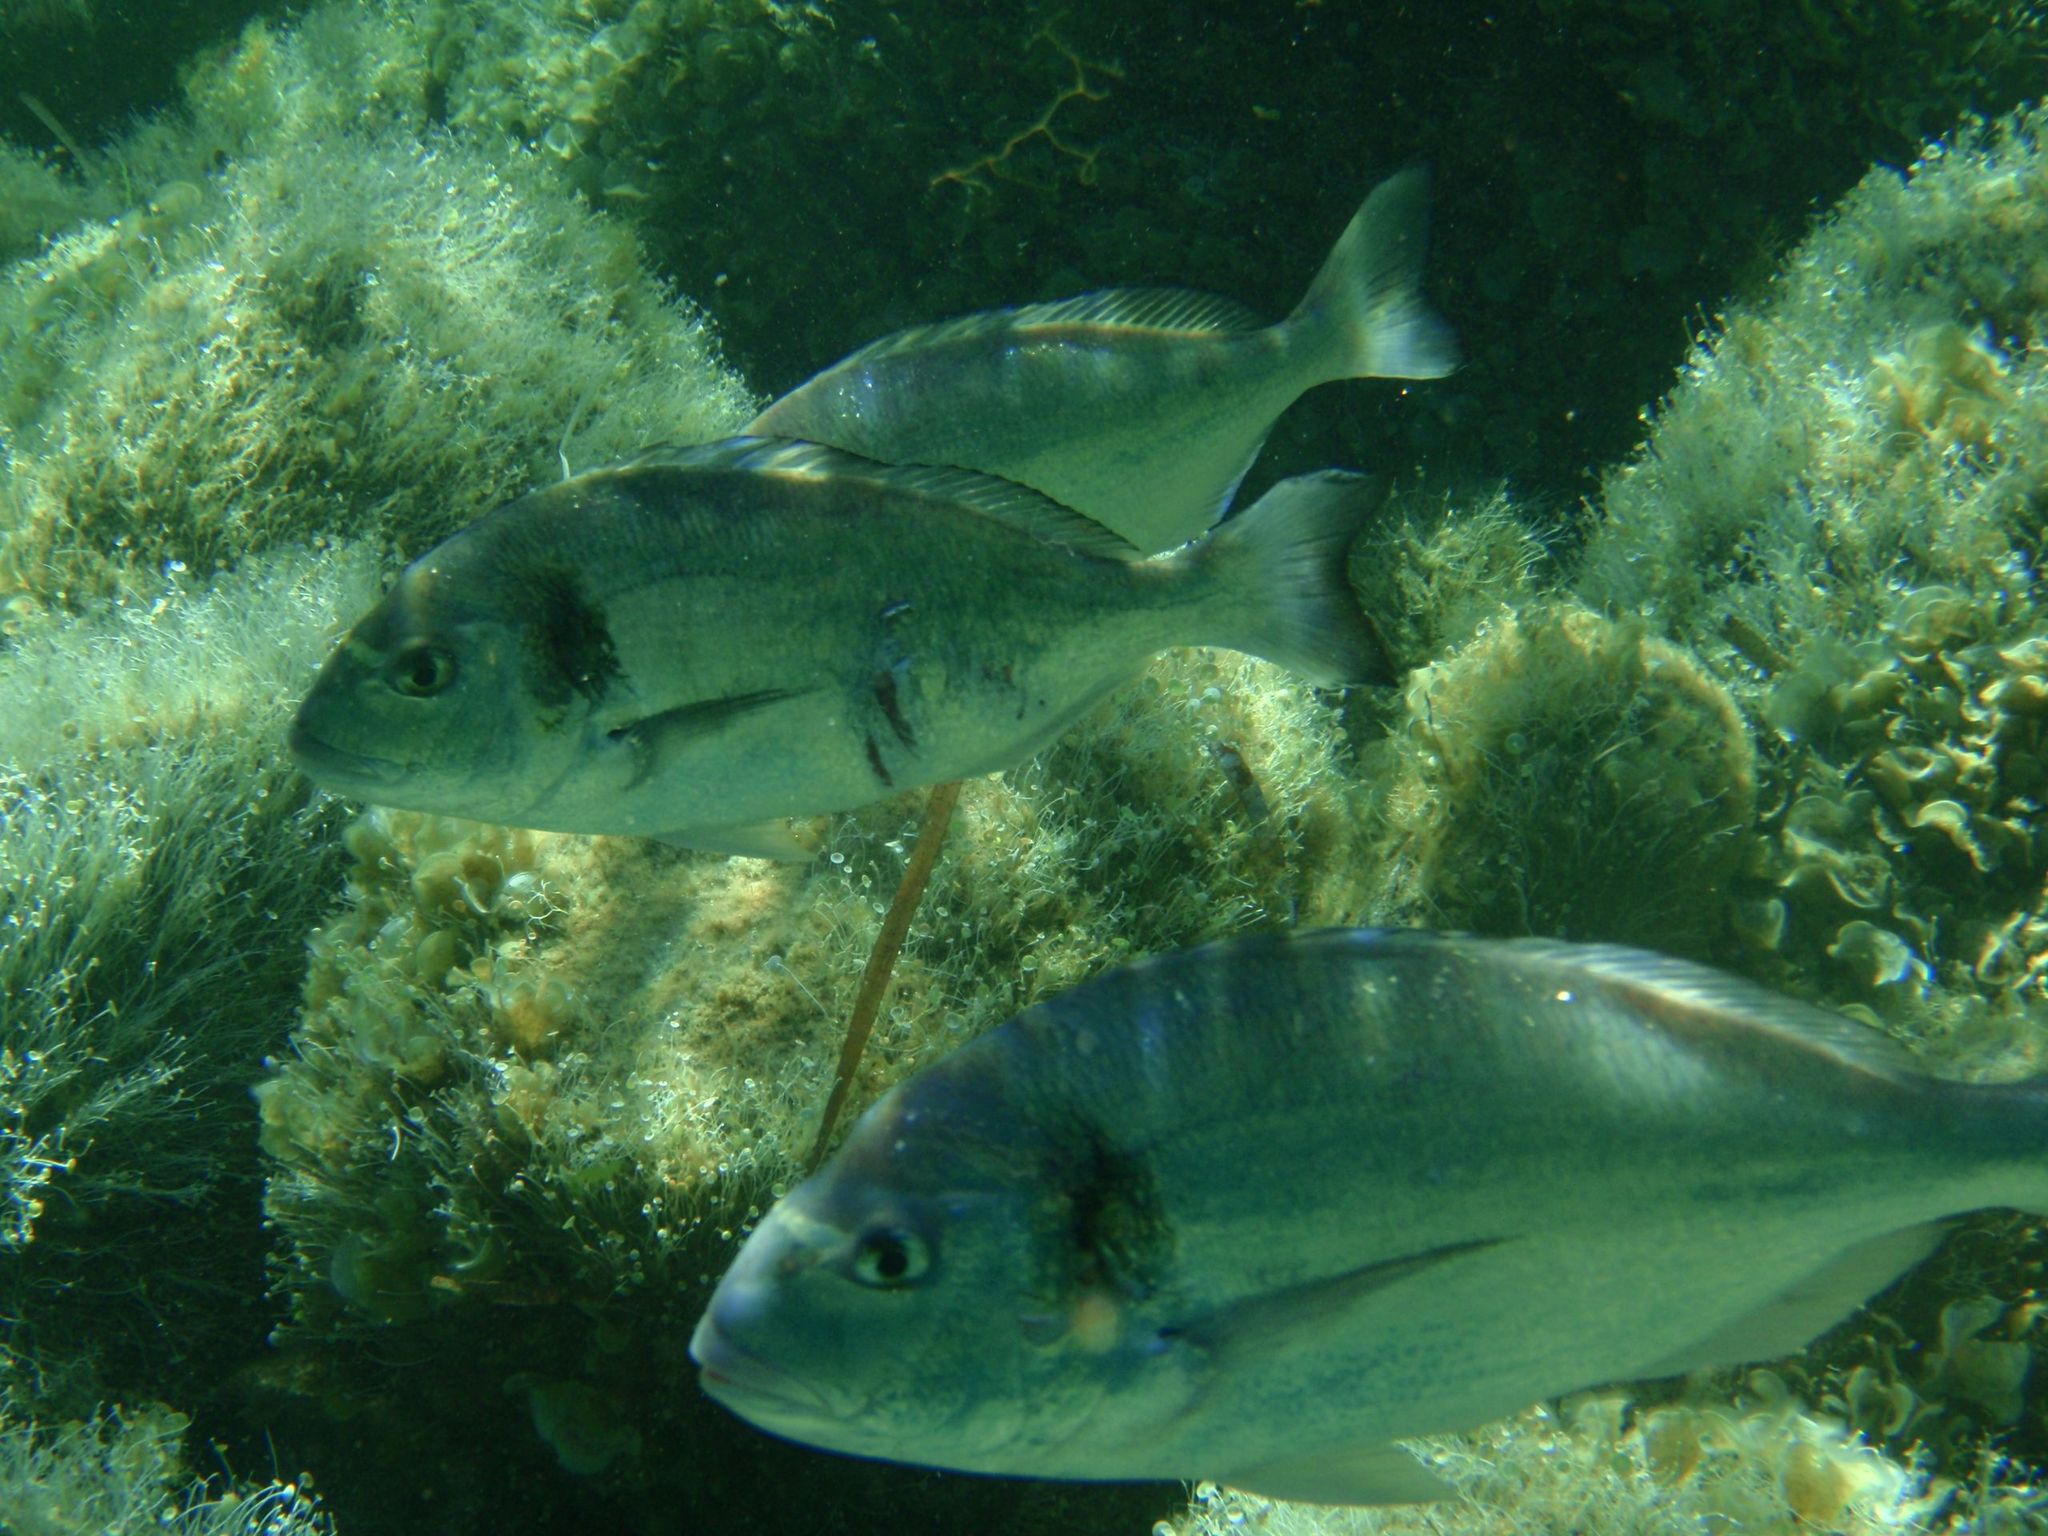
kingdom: Animalia
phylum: Chordata
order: Perciformes
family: Sparidae
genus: Sparus
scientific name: Sparus aurata
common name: Gilthead
